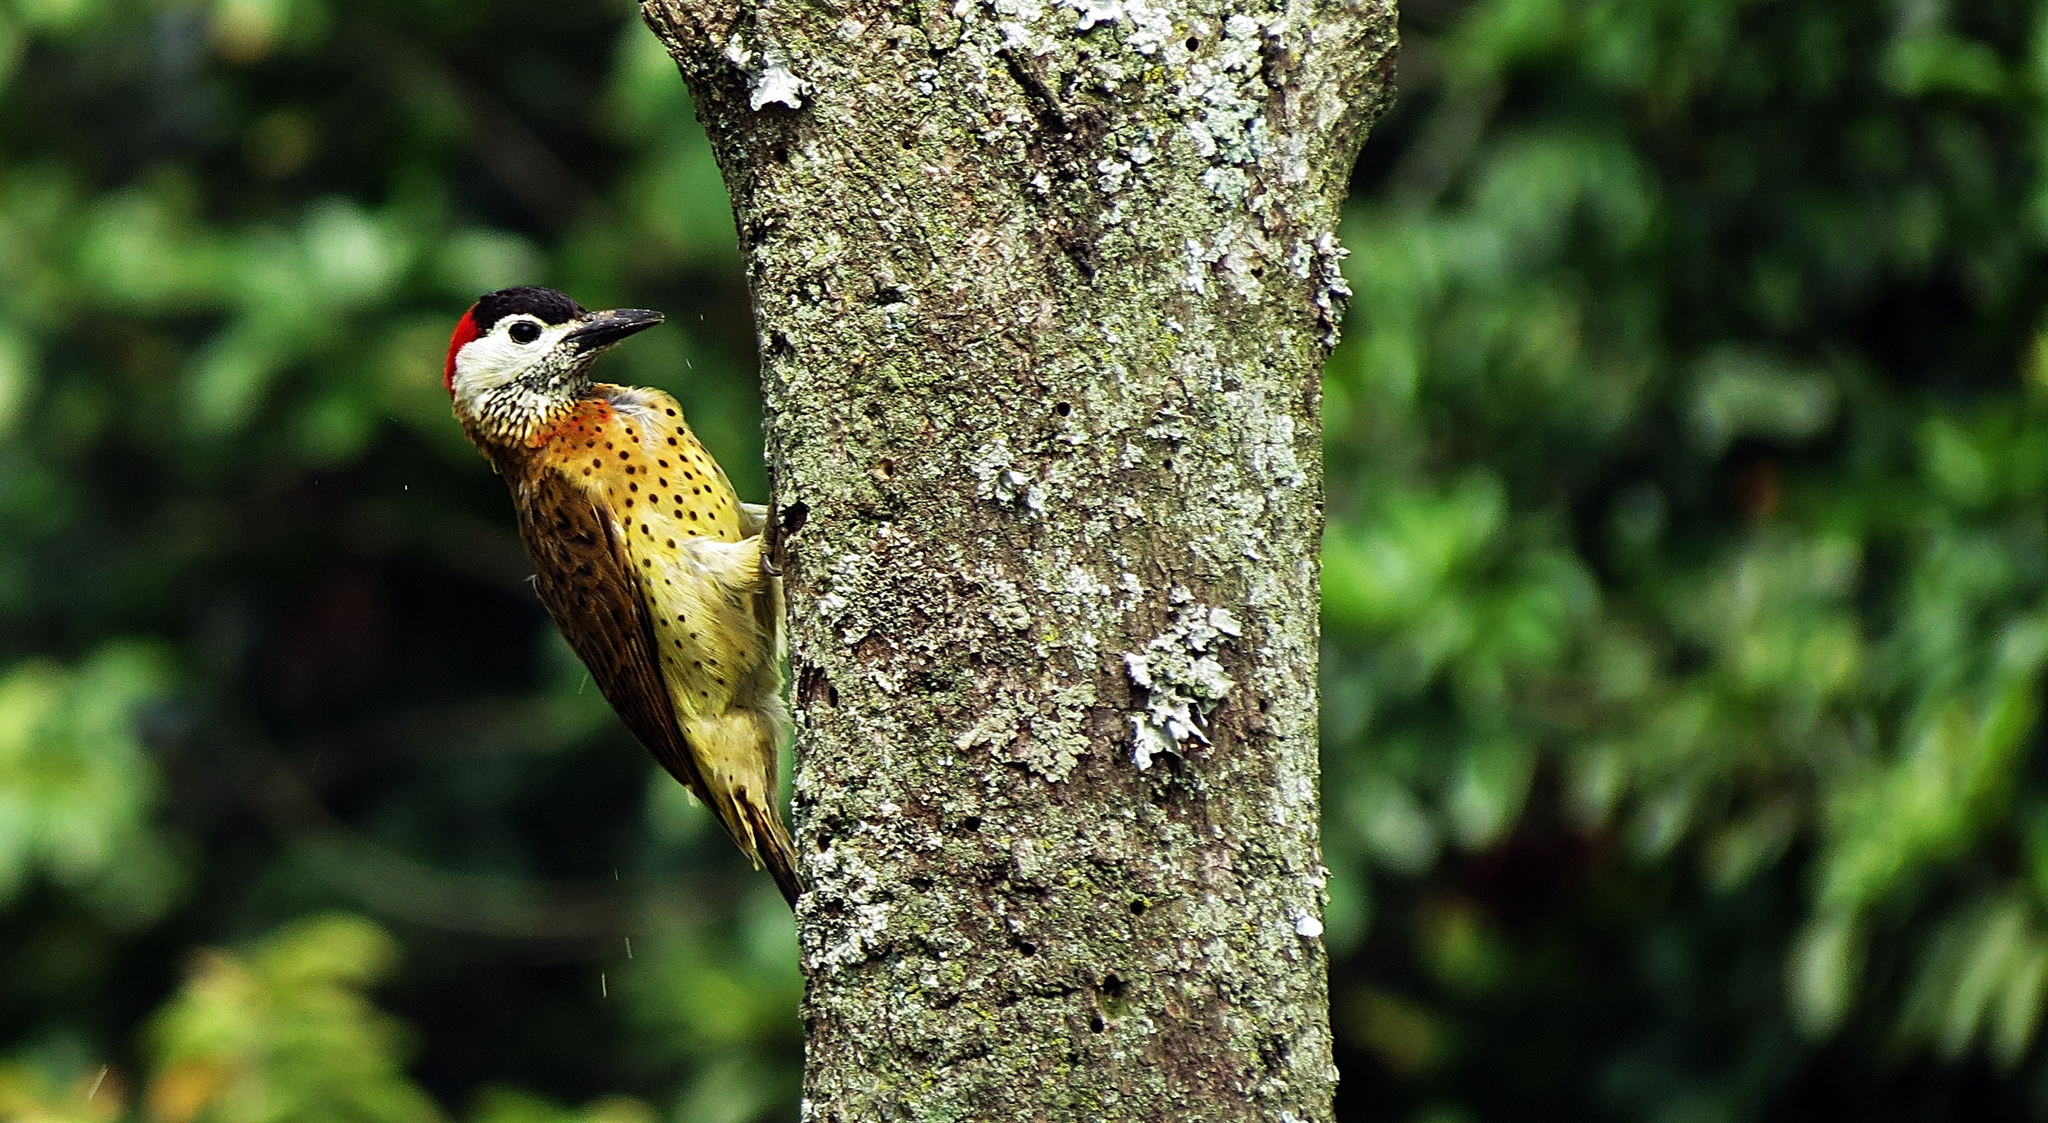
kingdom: Animalia
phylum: Chordata
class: Aves
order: Piciformes
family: Picidae
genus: Colaptes
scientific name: Colaptes punctigula
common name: Spot-breasted woodpecker
